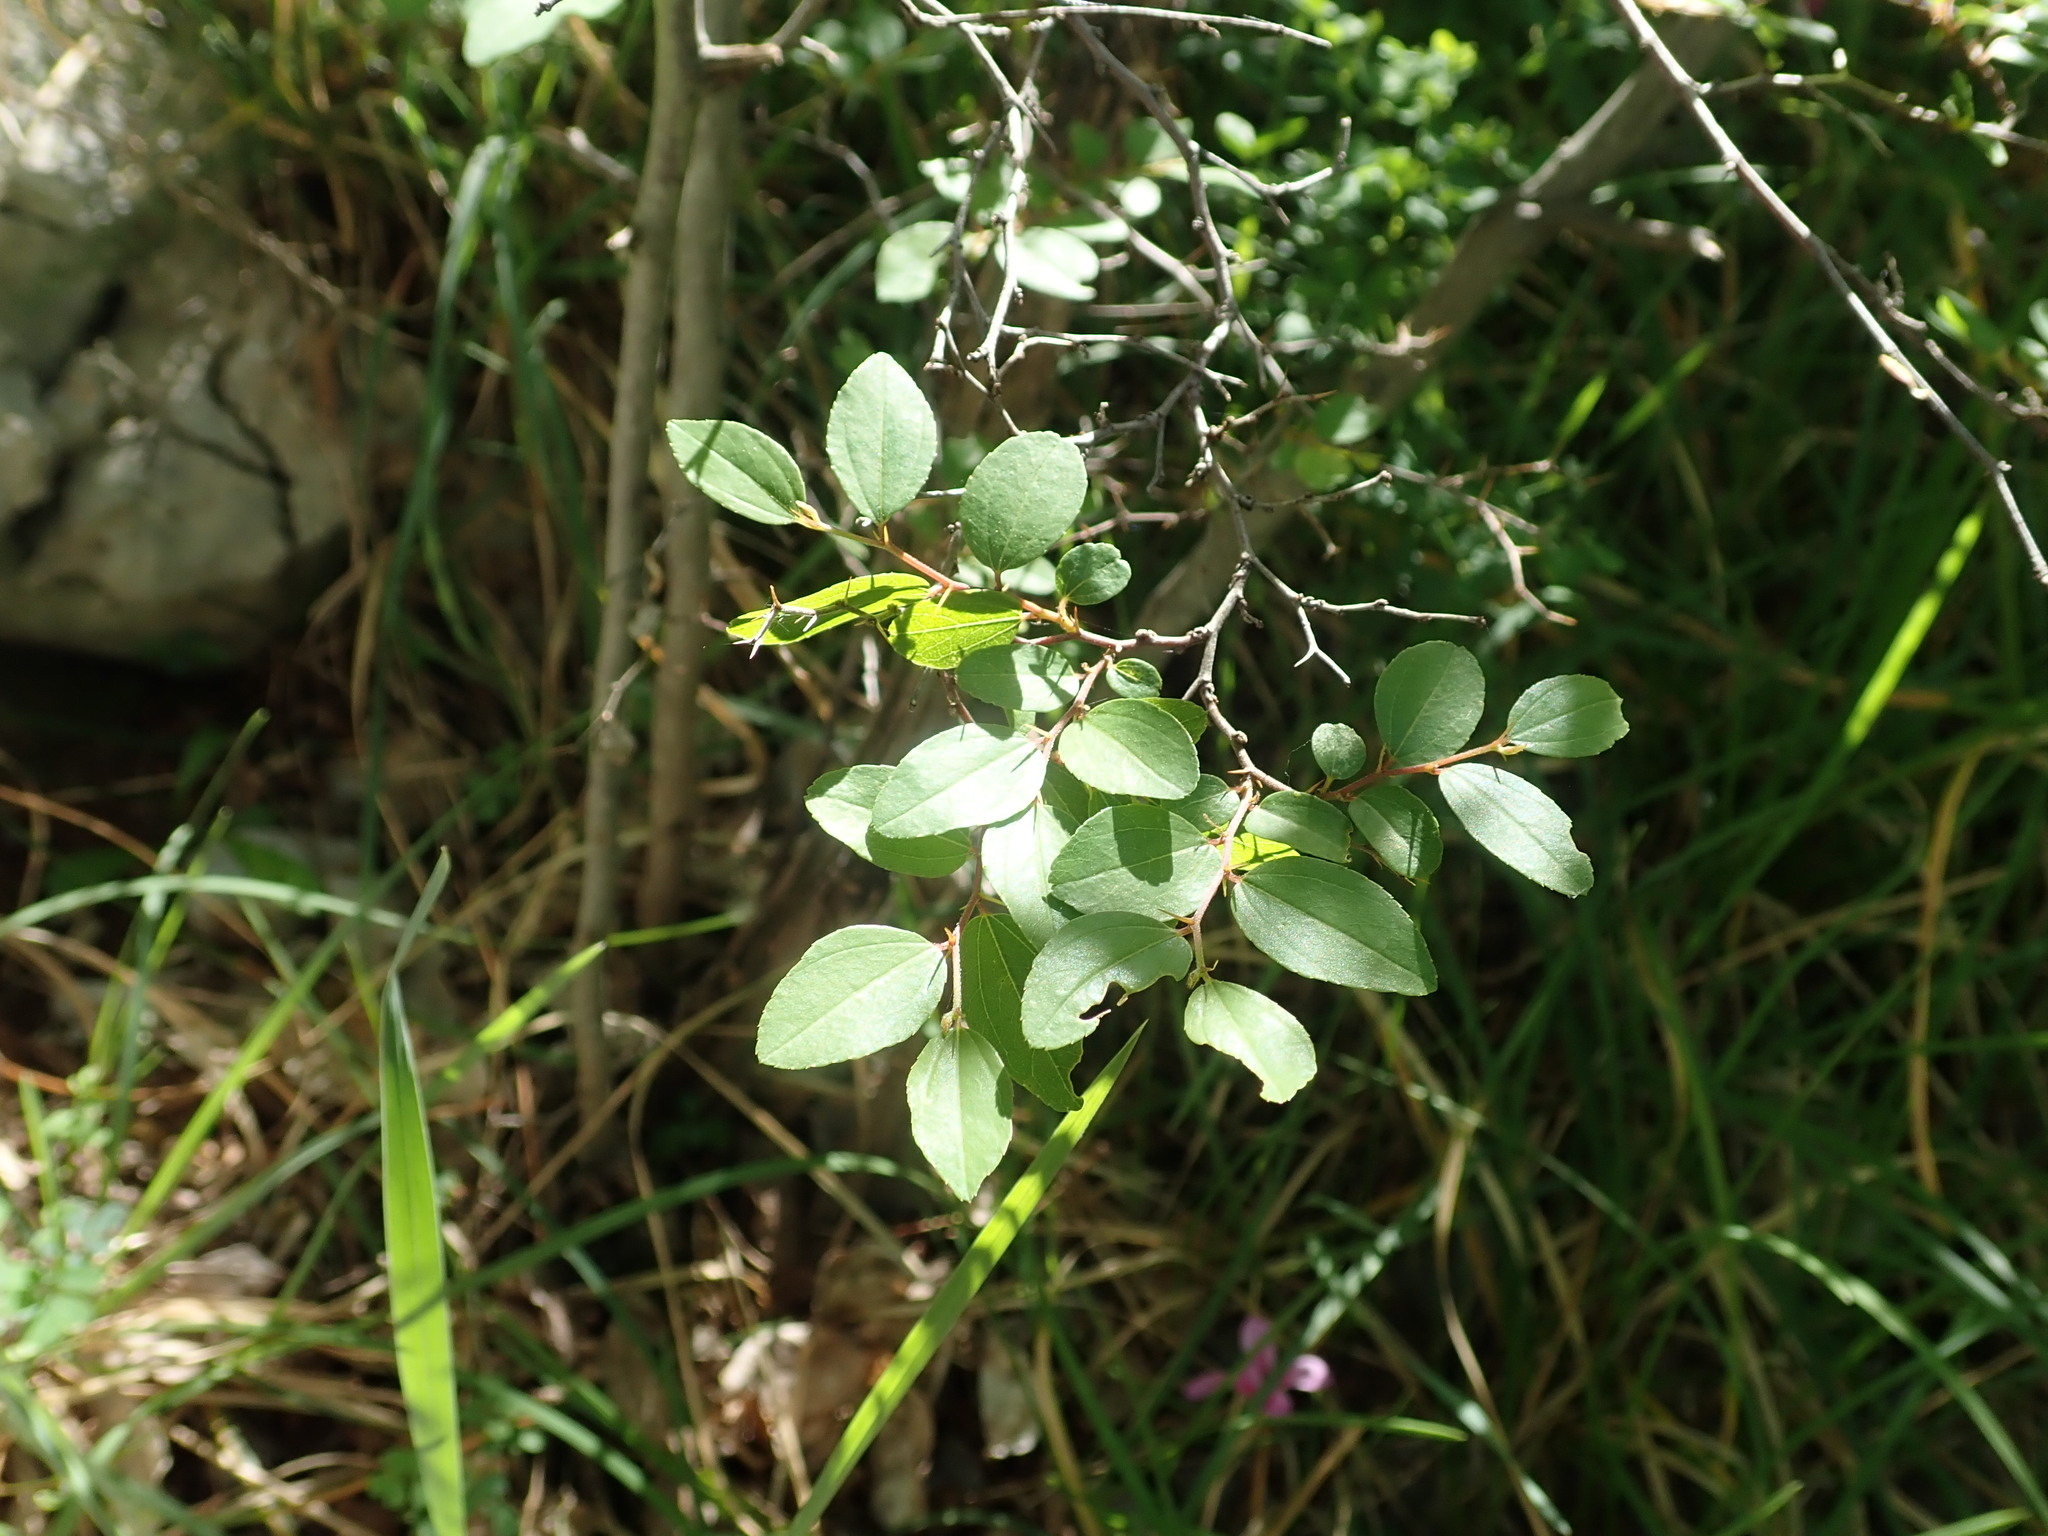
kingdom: Plantae
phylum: Tracheophyta
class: Magnoliopsida
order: Rosales
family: Rhamnaceae
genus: Paliurus
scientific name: Paliurus spina-christi
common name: Jeruselem thorn
